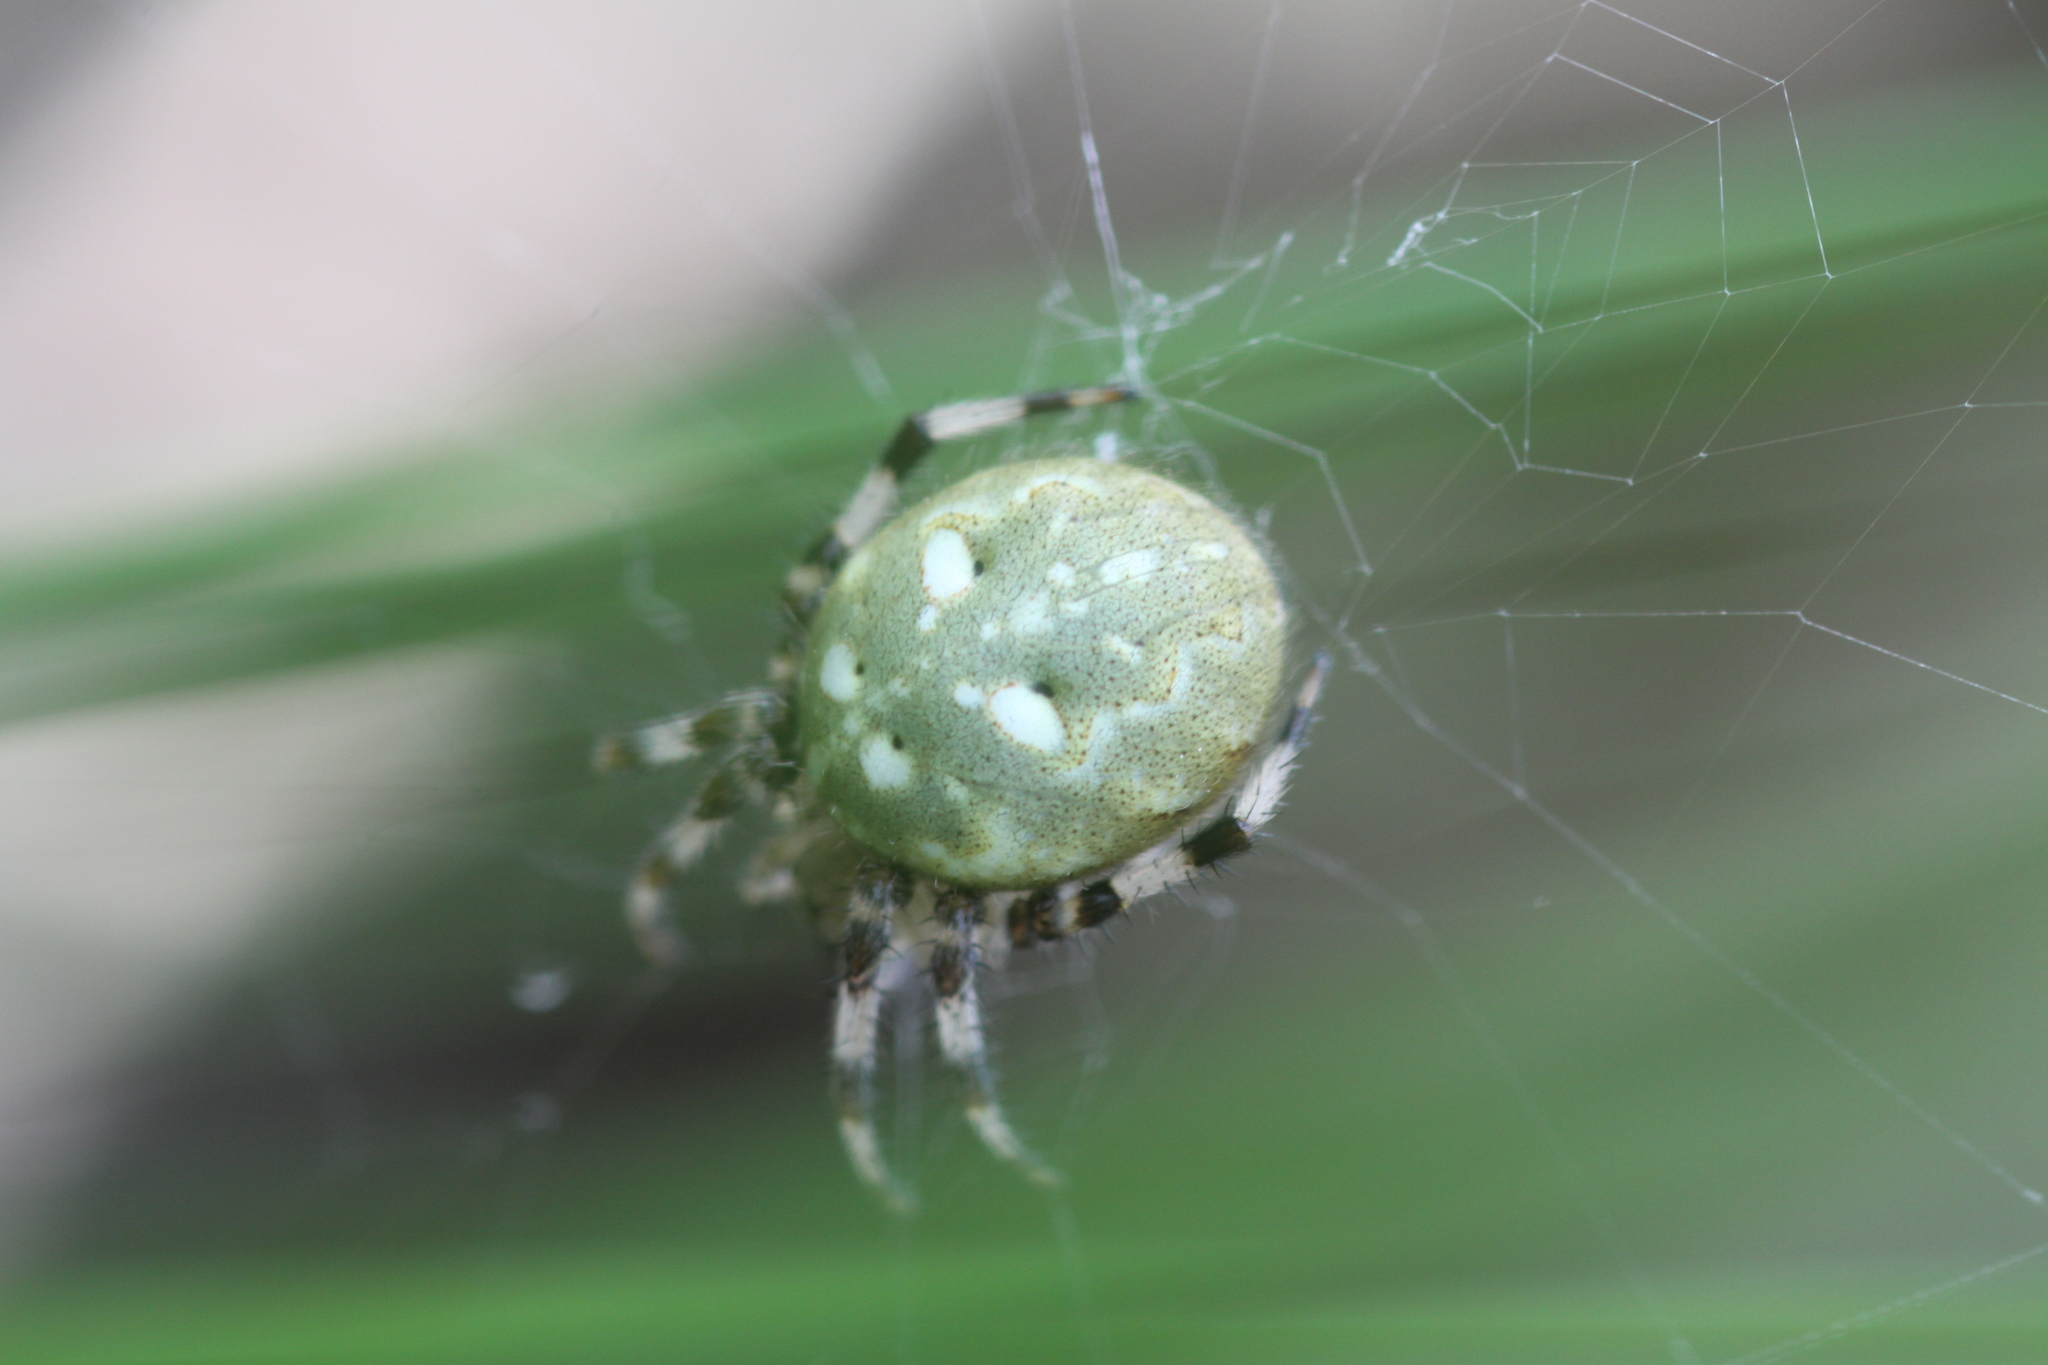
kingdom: Animalia
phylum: Arthropoda
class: Arachnida
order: Araneae
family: Araneidae
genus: Araneus
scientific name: Araneus quadratus
